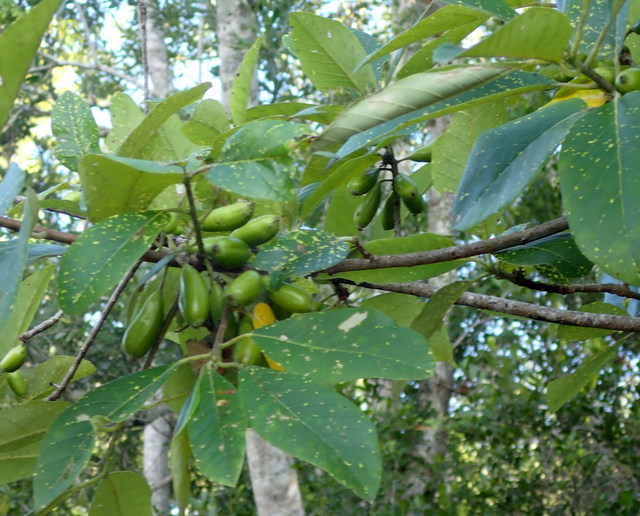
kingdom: Plantae
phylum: Tracheophyta
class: Magnoliopsida
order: Cornales
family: Nyssaceae
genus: Nyssa
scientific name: Nyssa ogeche
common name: Ogeechee tupelo
